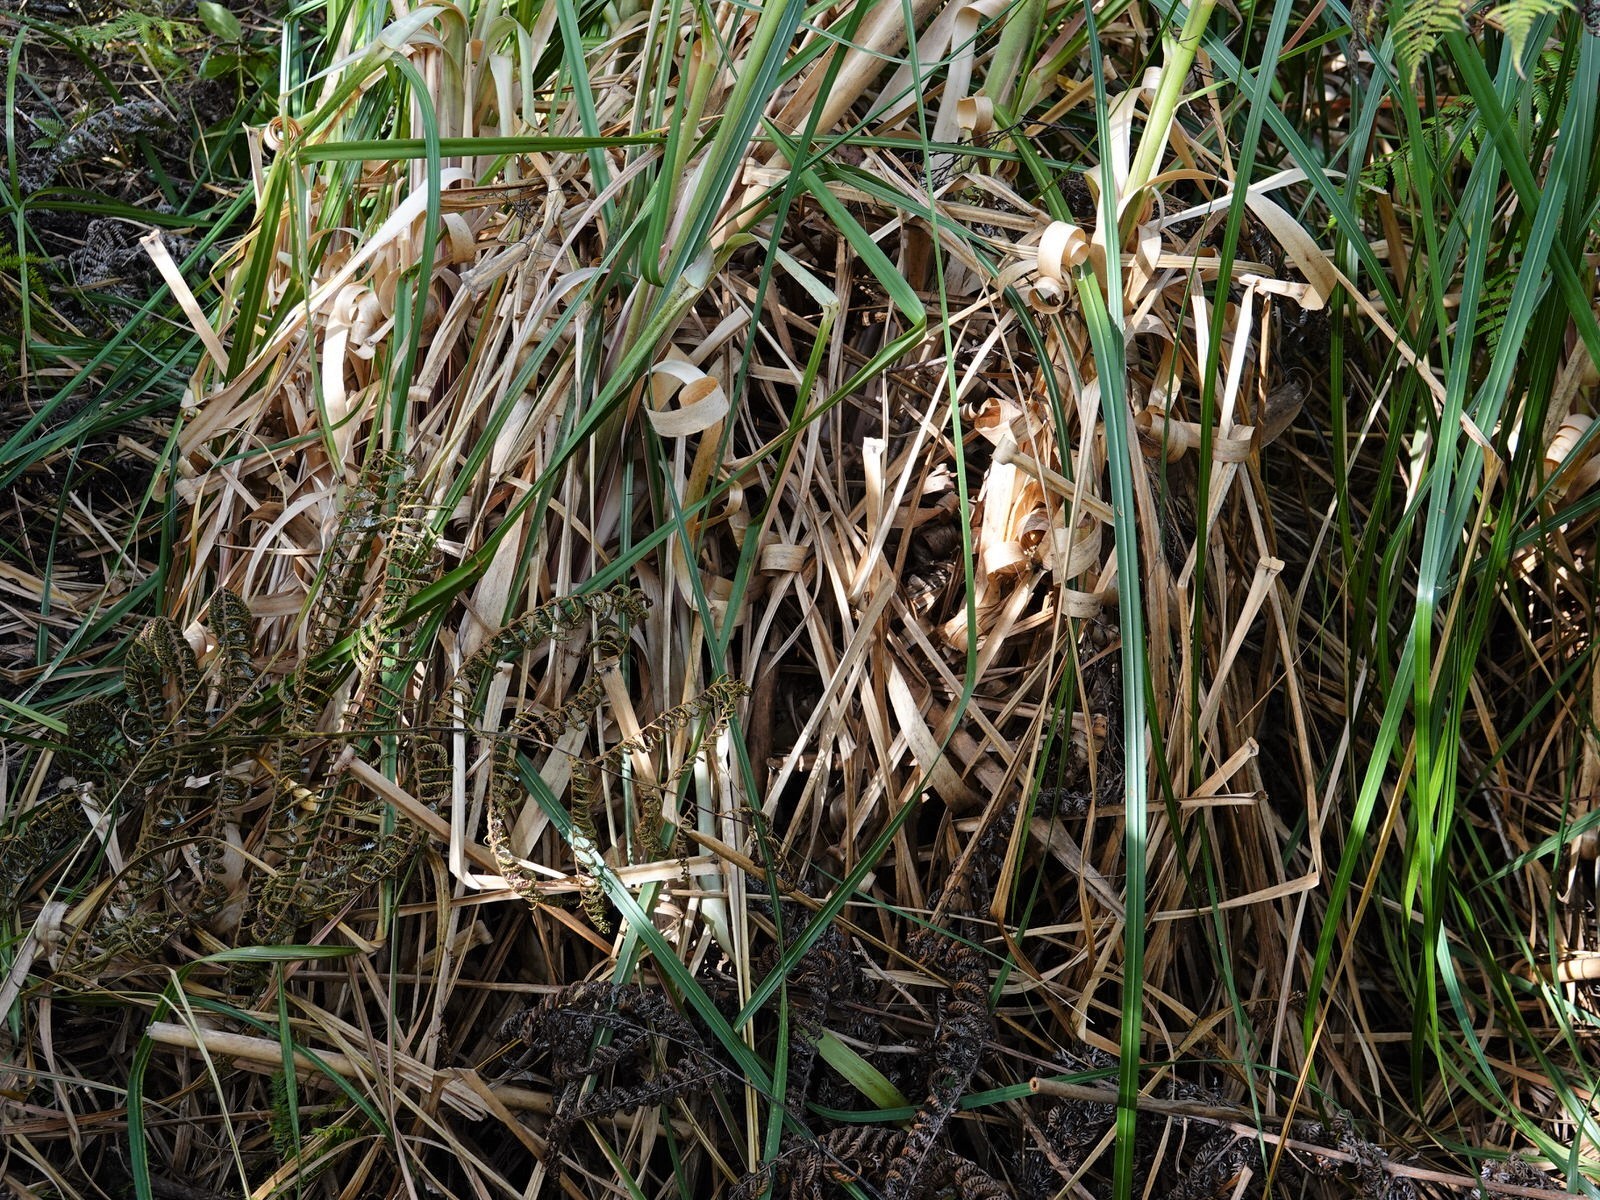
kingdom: Plantae
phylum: Tracheophyta
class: Liliopsida
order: Poales
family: Poaceae
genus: Cortaderia
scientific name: Cortaderia jubata
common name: Purple pampas grass
